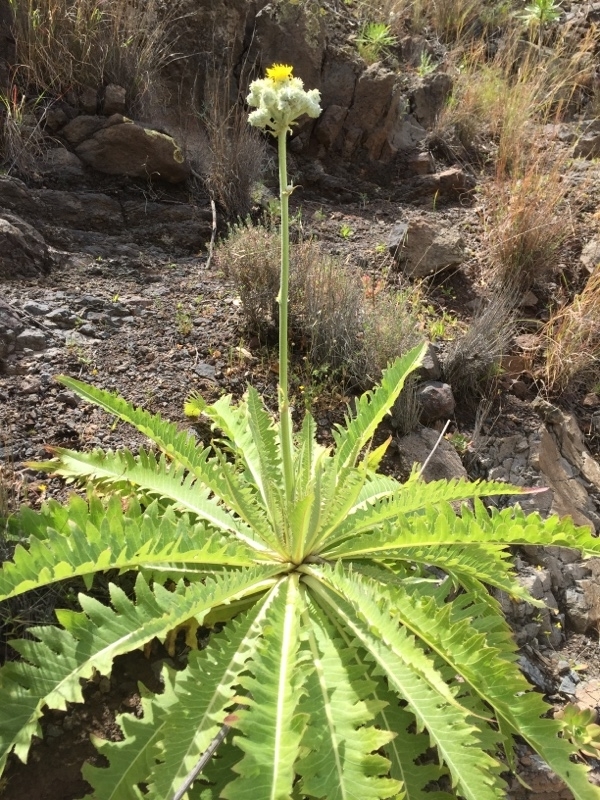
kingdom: Plantae
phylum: Tracheophyta
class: Magnoliopsida
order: Asterales
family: Asteraceae
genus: Sonchus
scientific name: Sonchus acaulis
